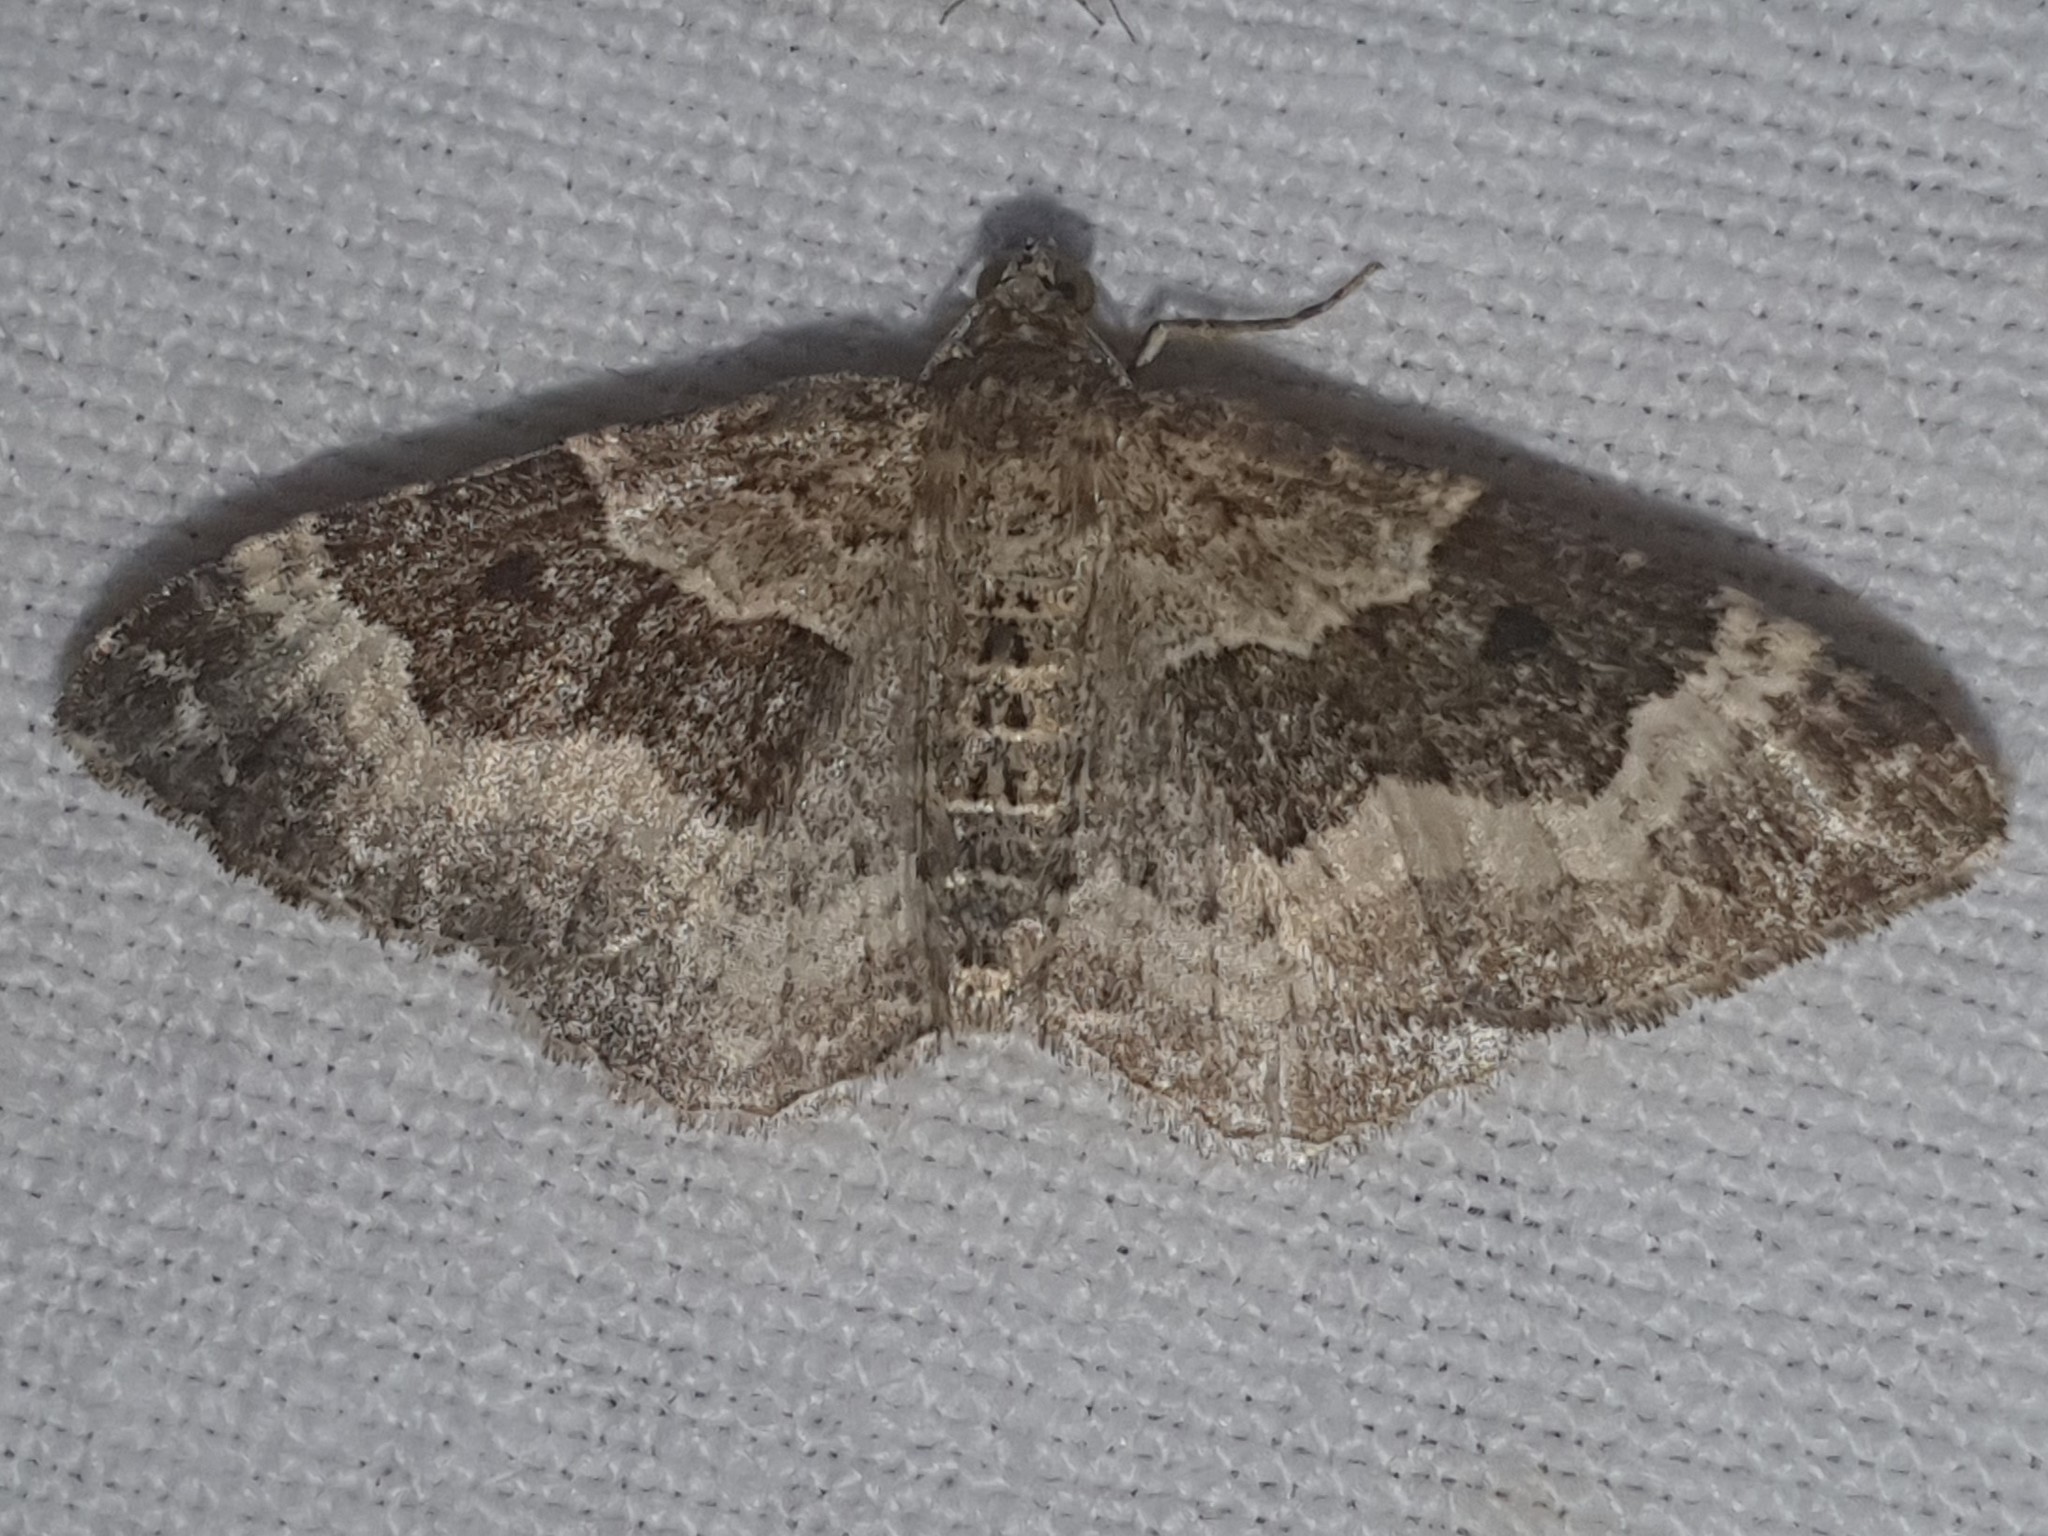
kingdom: Animalia
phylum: Arthropoda
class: Insecta
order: Lepidoptera
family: Geometridae
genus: Epirrhoe
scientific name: Epirrhoe alternata
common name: Common carpet
